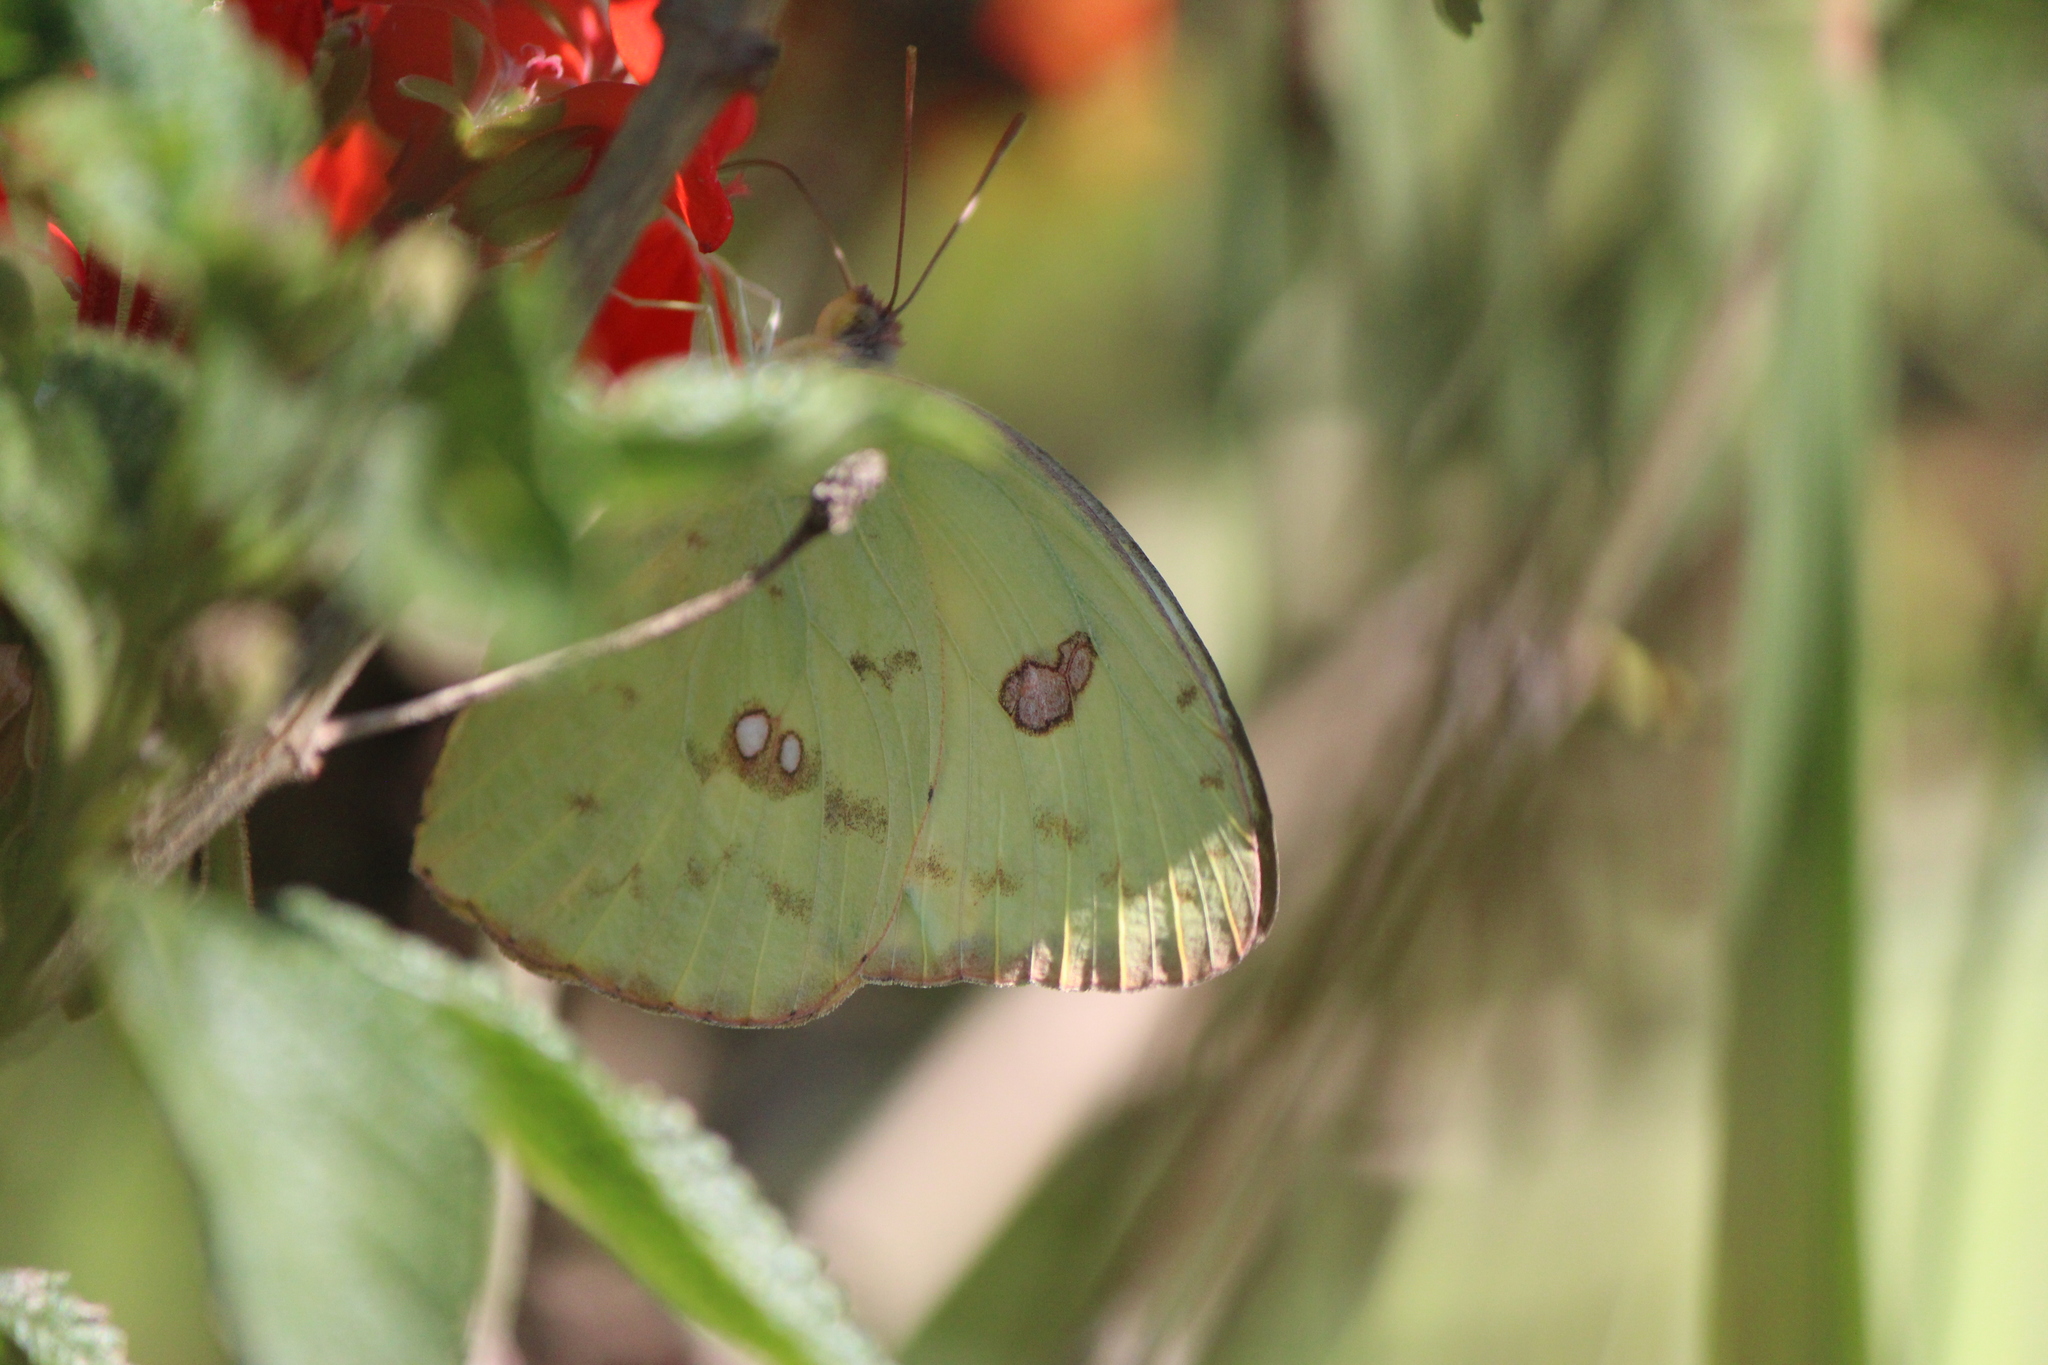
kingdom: Animalia
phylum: Arthropoda
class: Insecta
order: Lepidoptera
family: Pieridae
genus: Phoebis
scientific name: Phoebis sennae
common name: Cloudless sulphur
